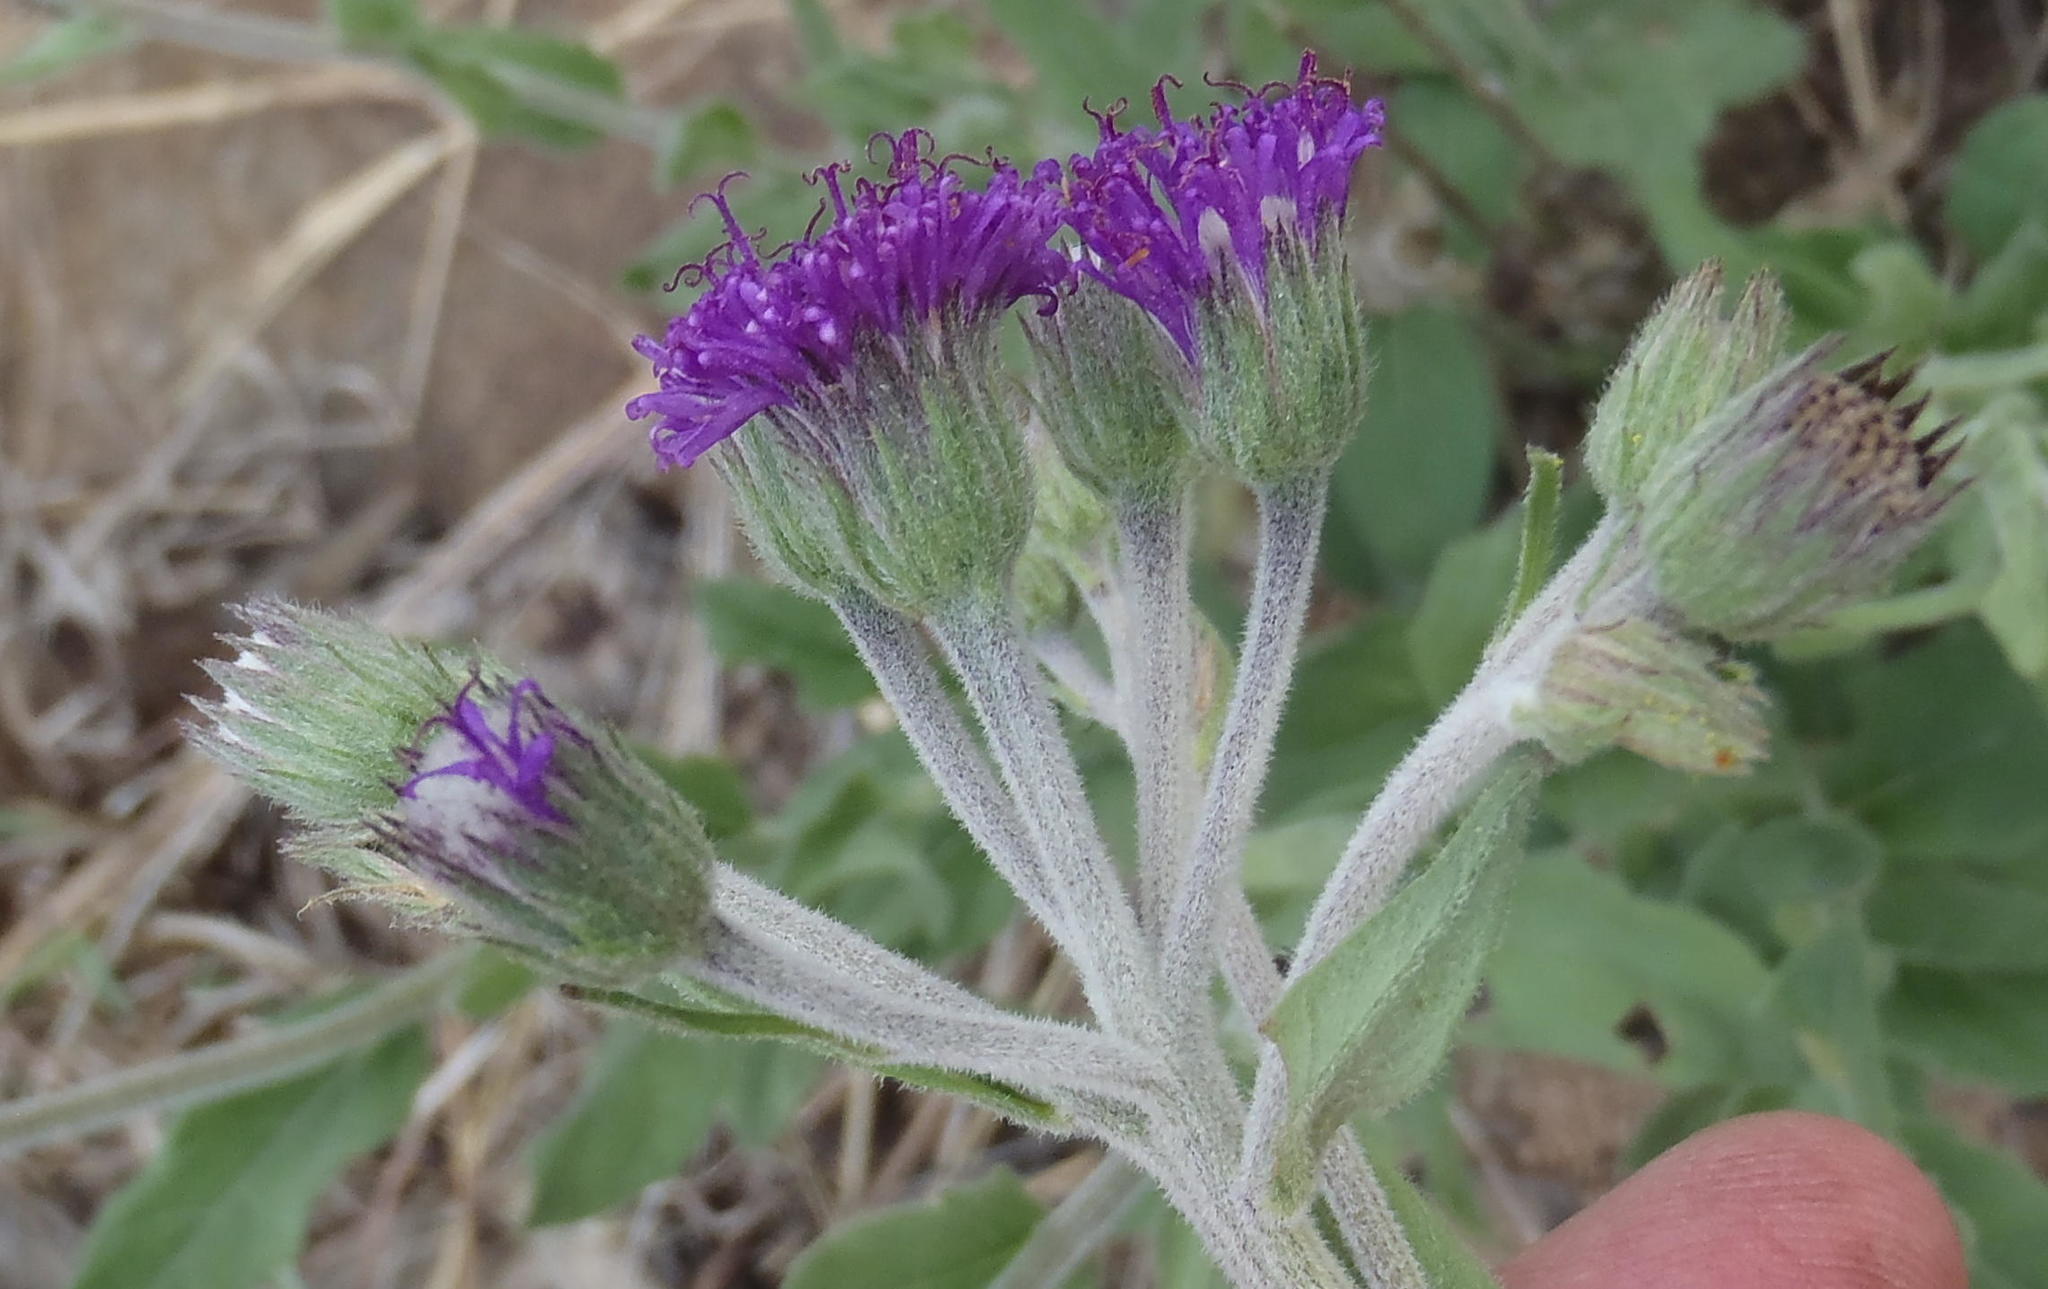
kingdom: Plantae
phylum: Tracheophyta
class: Magnoliopsida
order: Asterales
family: Asteraceae
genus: Hilliardiella
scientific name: Hilliardiella sutherlandii
